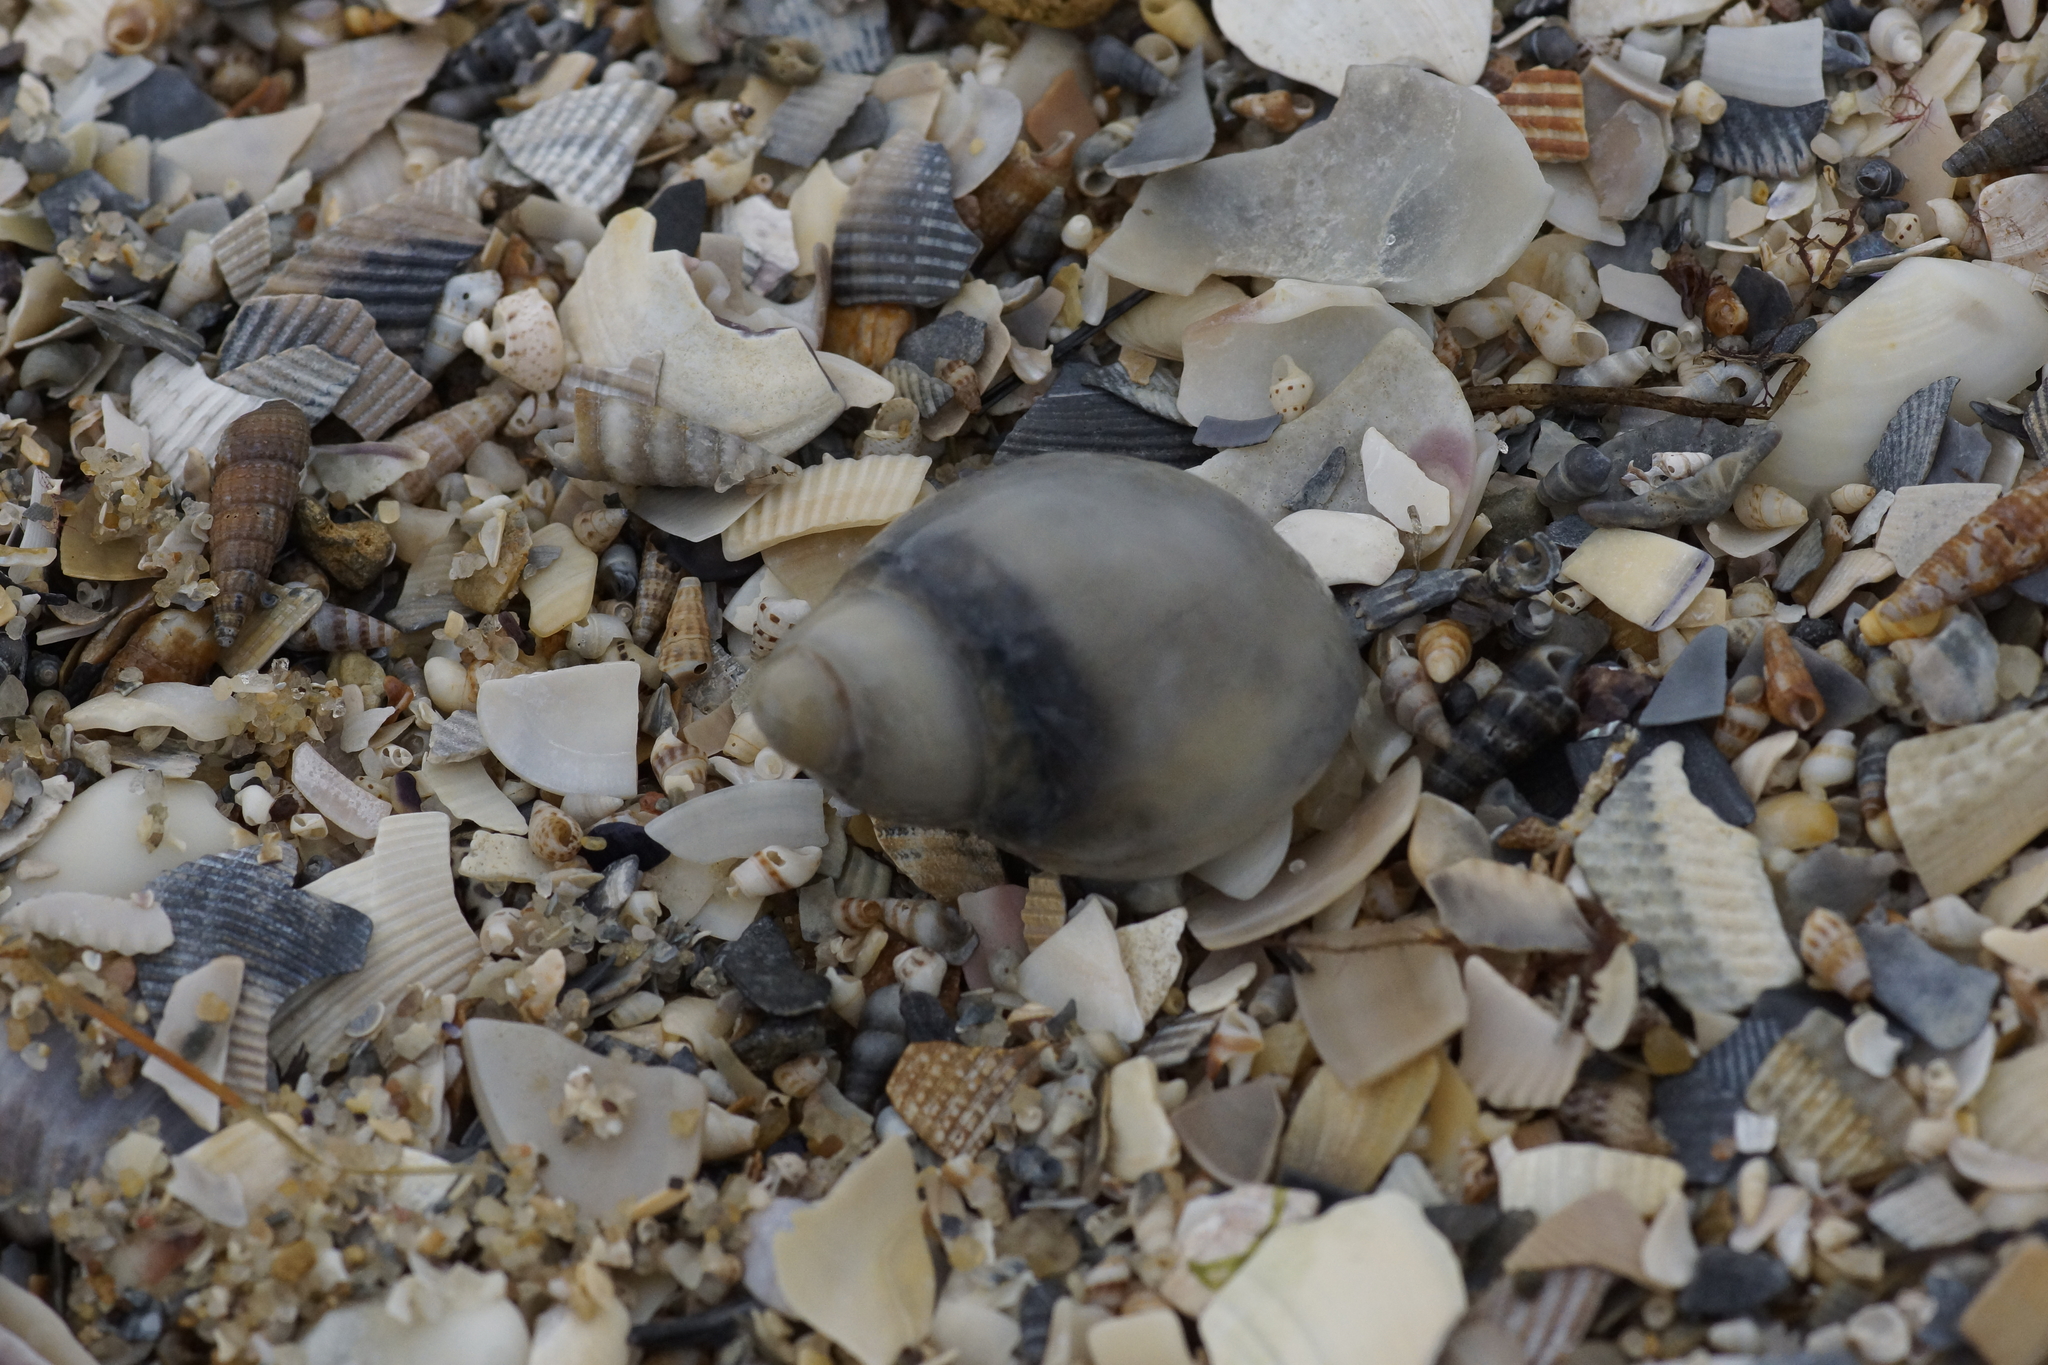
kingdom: Animalia
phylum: Mollusca
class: Gastropoda
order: Littorinimorpha
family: Naticidae
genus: Conuber
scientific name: Conuber conicum
